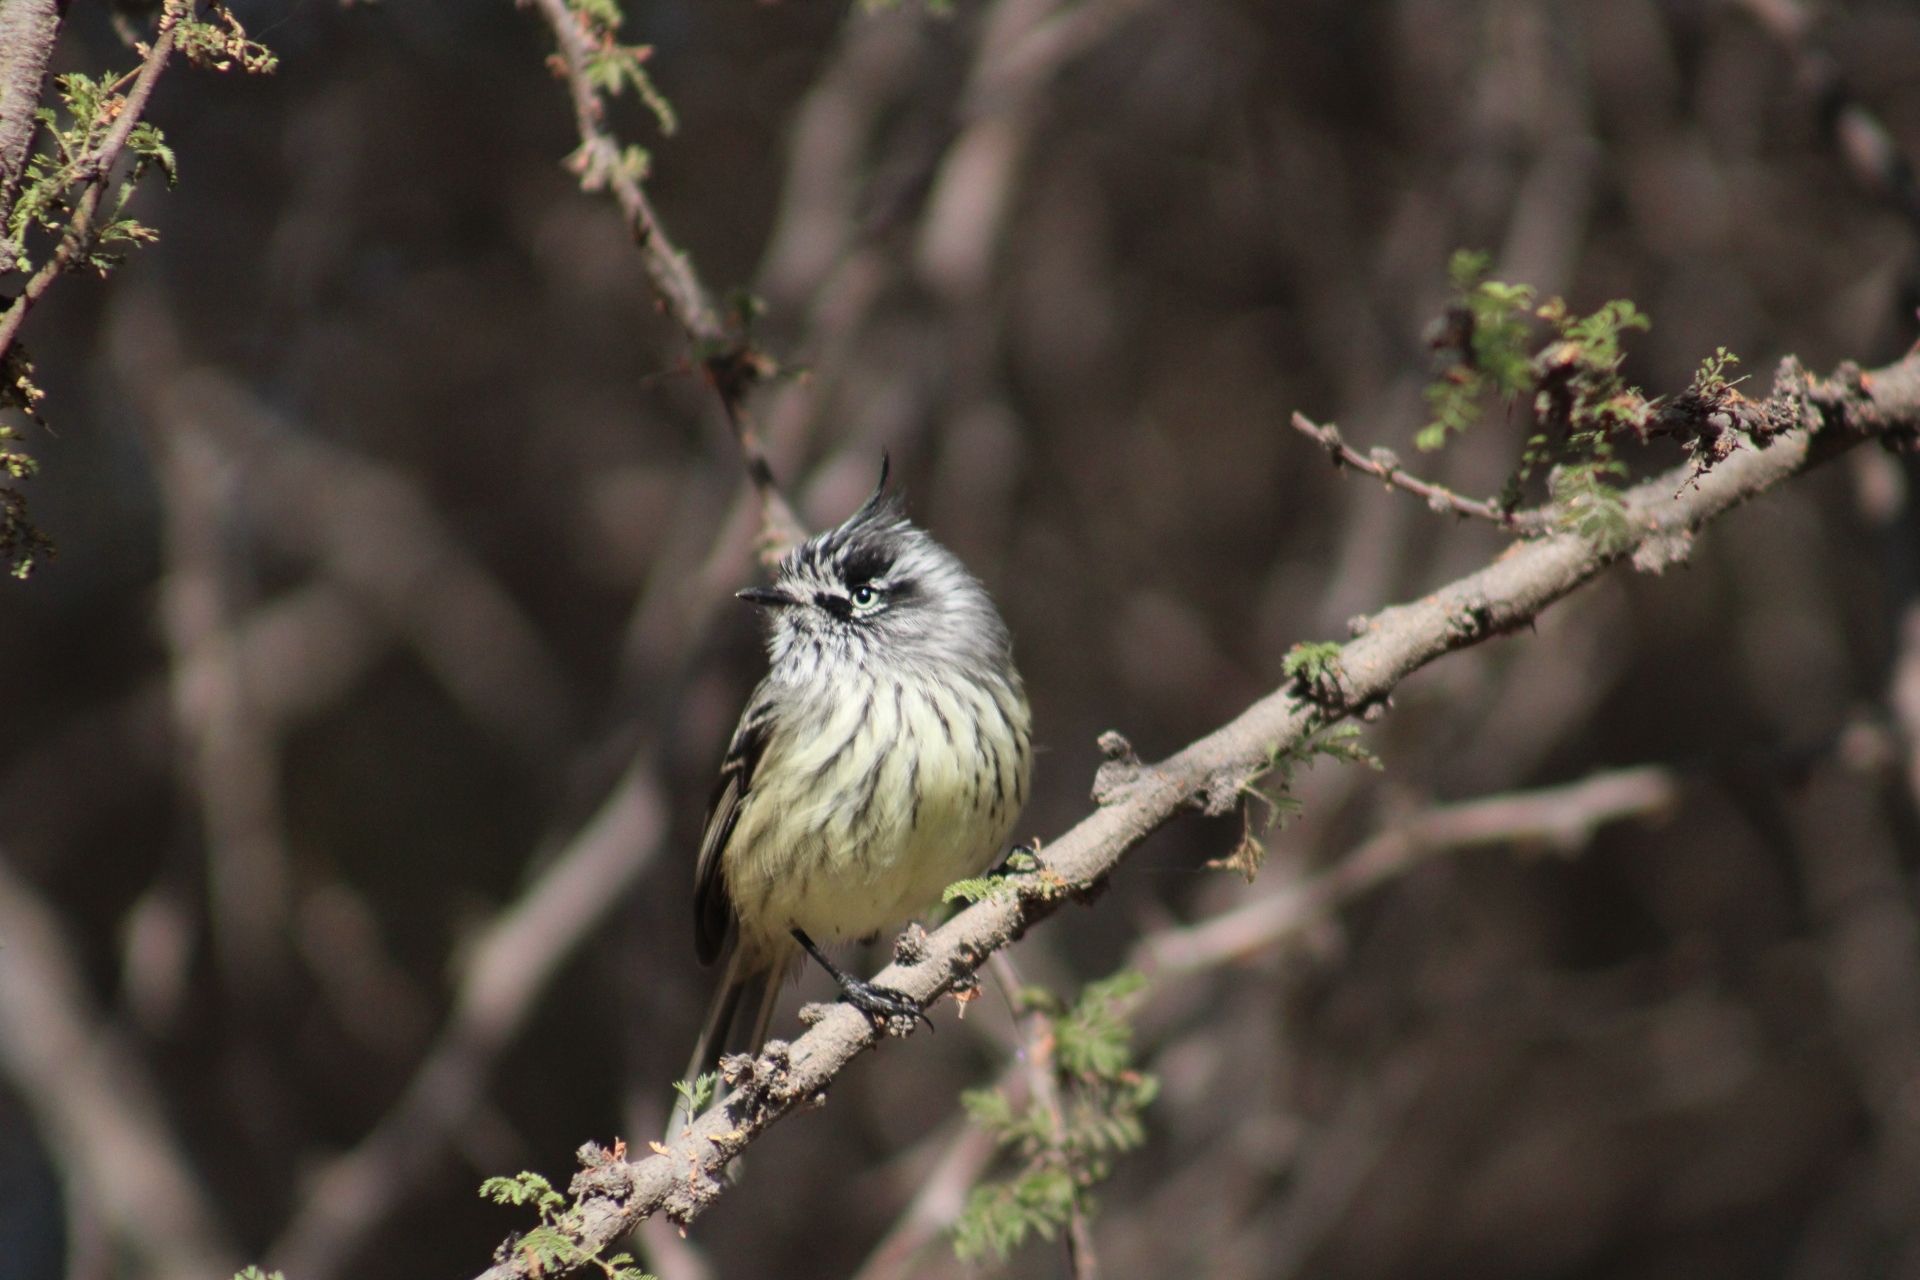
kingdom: Animalia
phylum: Chordata
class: Aves
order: Passeriformes
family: Tyrannidae
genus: Anairetes
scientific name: Anairetes parulus
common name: Tufted tit-tyrant
